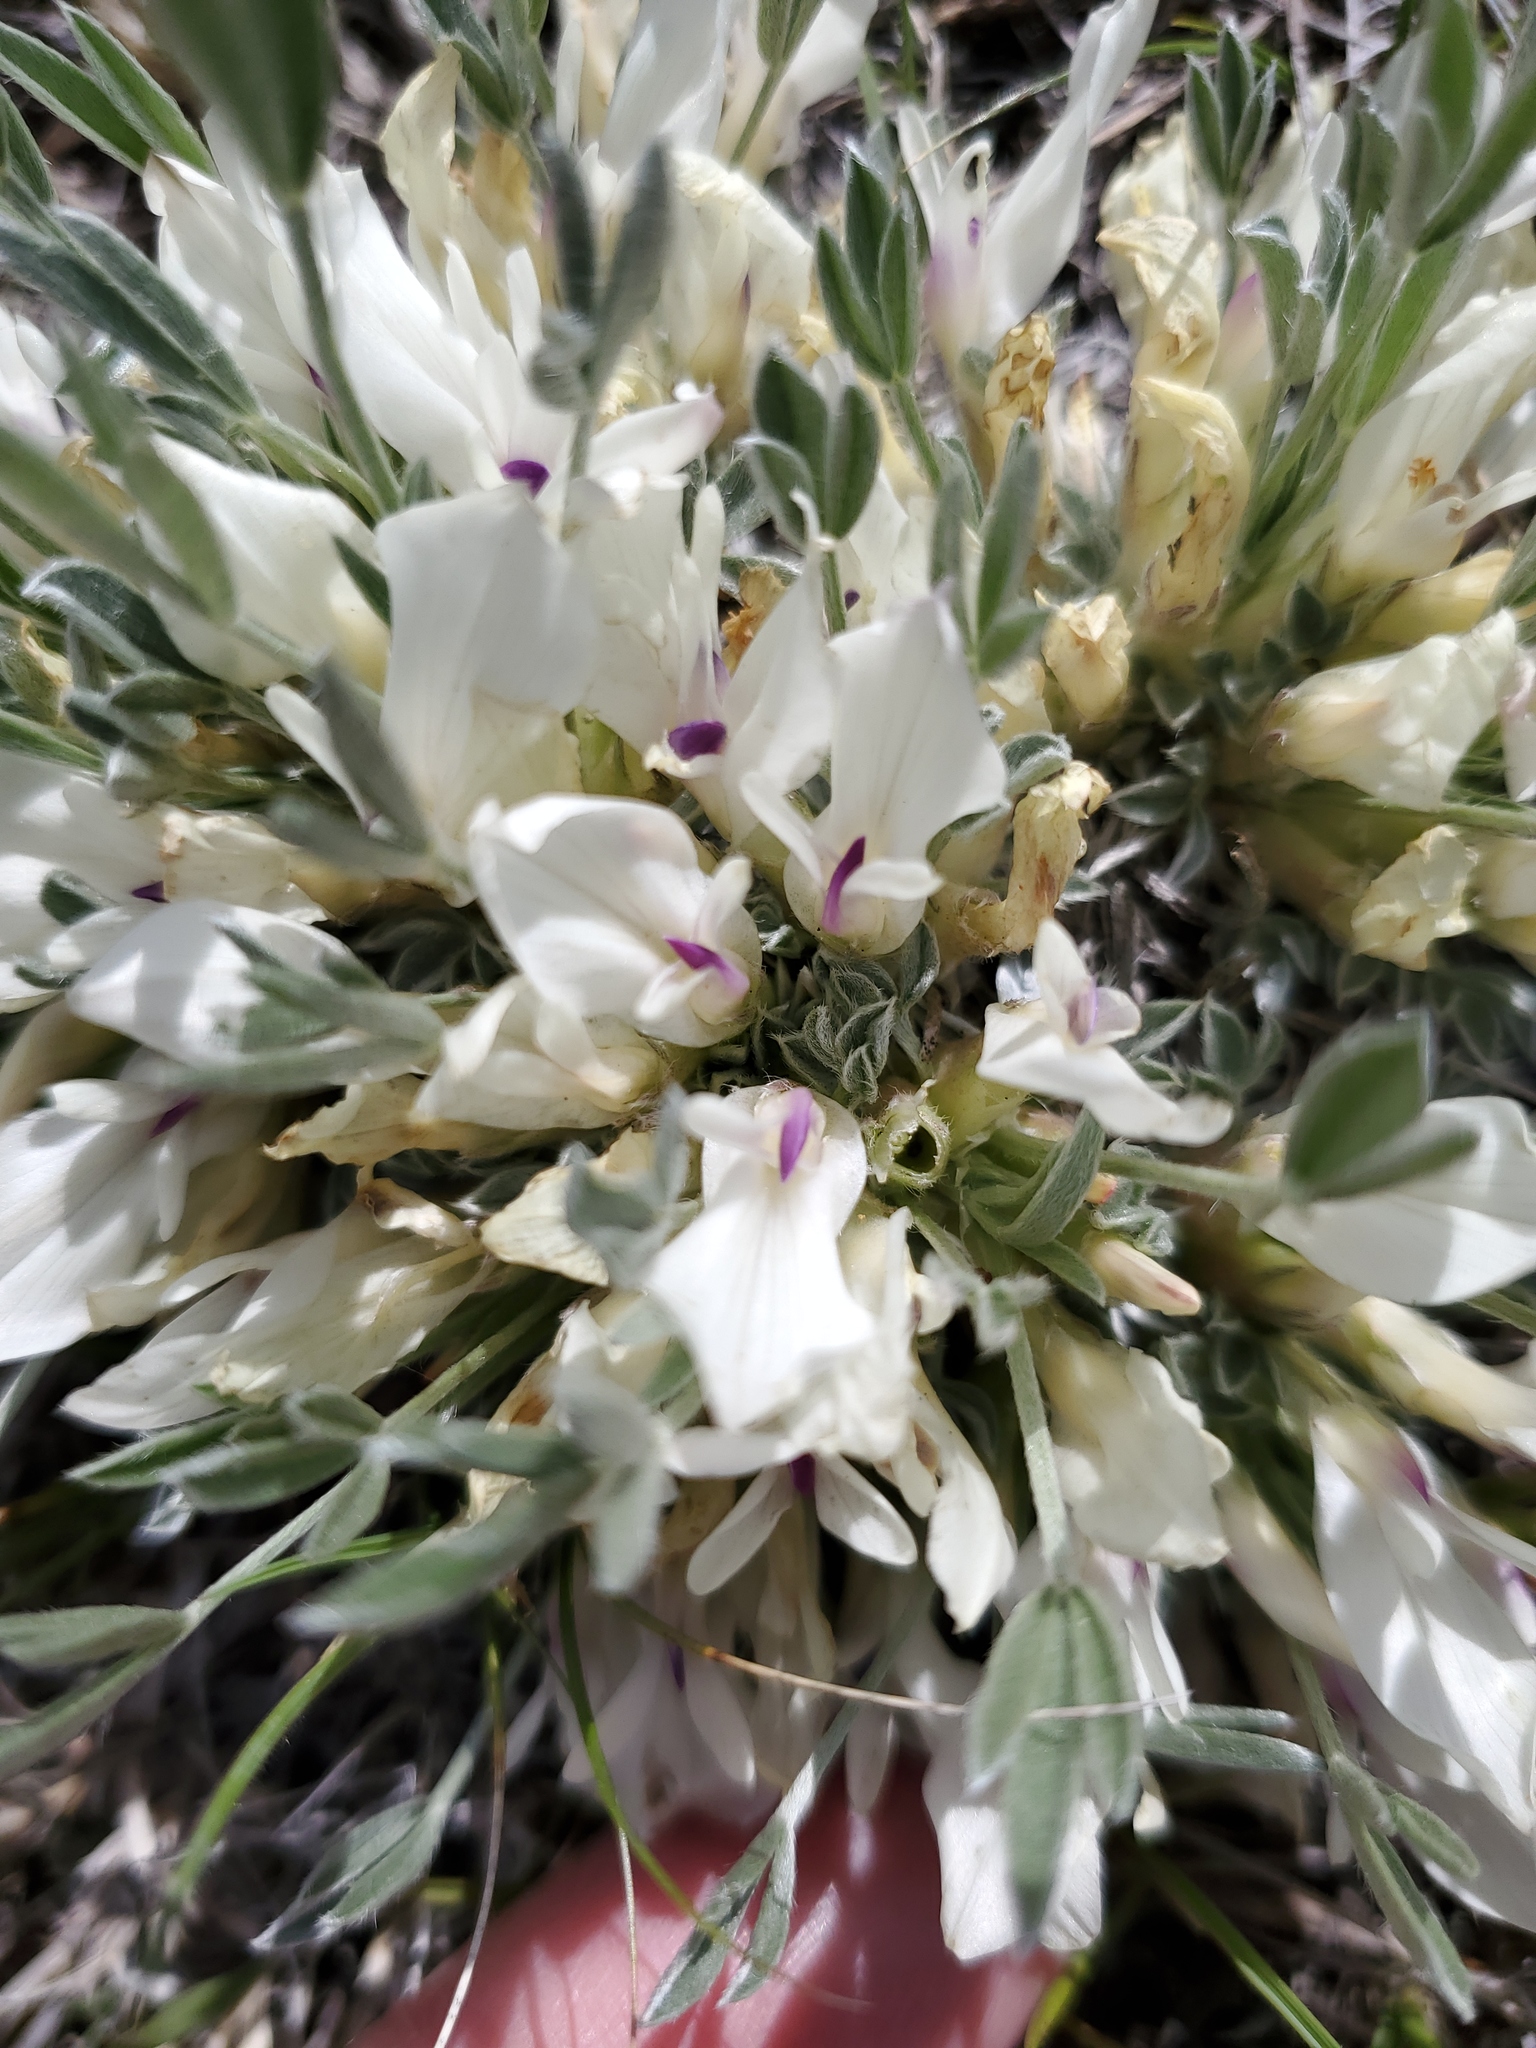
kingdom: Plantae
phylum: Tracheophyta
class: Magnoliopsida
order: Fabales
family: Fabaceae
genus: Astragalus
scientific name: Astragalus gilviflorus
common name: Cushion milk-vetch
